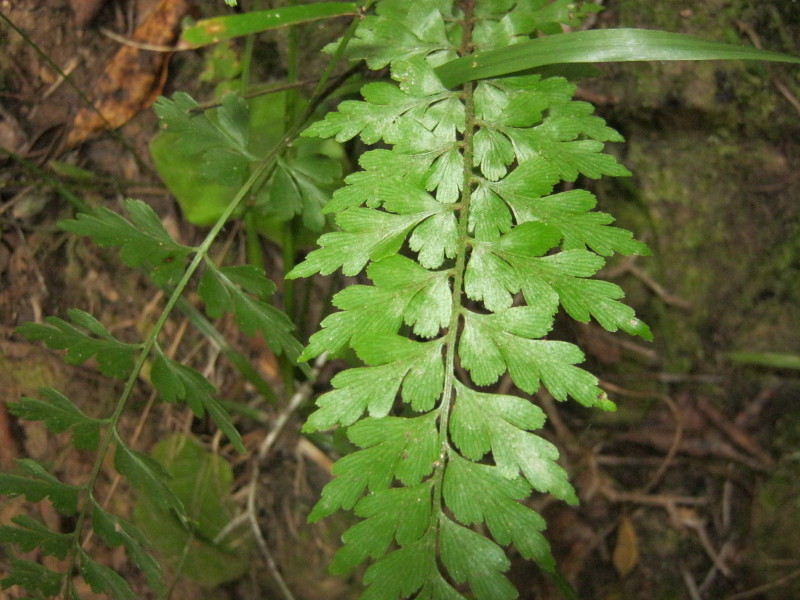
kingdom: Plantae
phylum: Tracheophyta
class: Polypodiopsida
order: Polypodiales
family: Aspleniaceae
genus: Asplenium
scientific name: Asplenium aethiopicum
